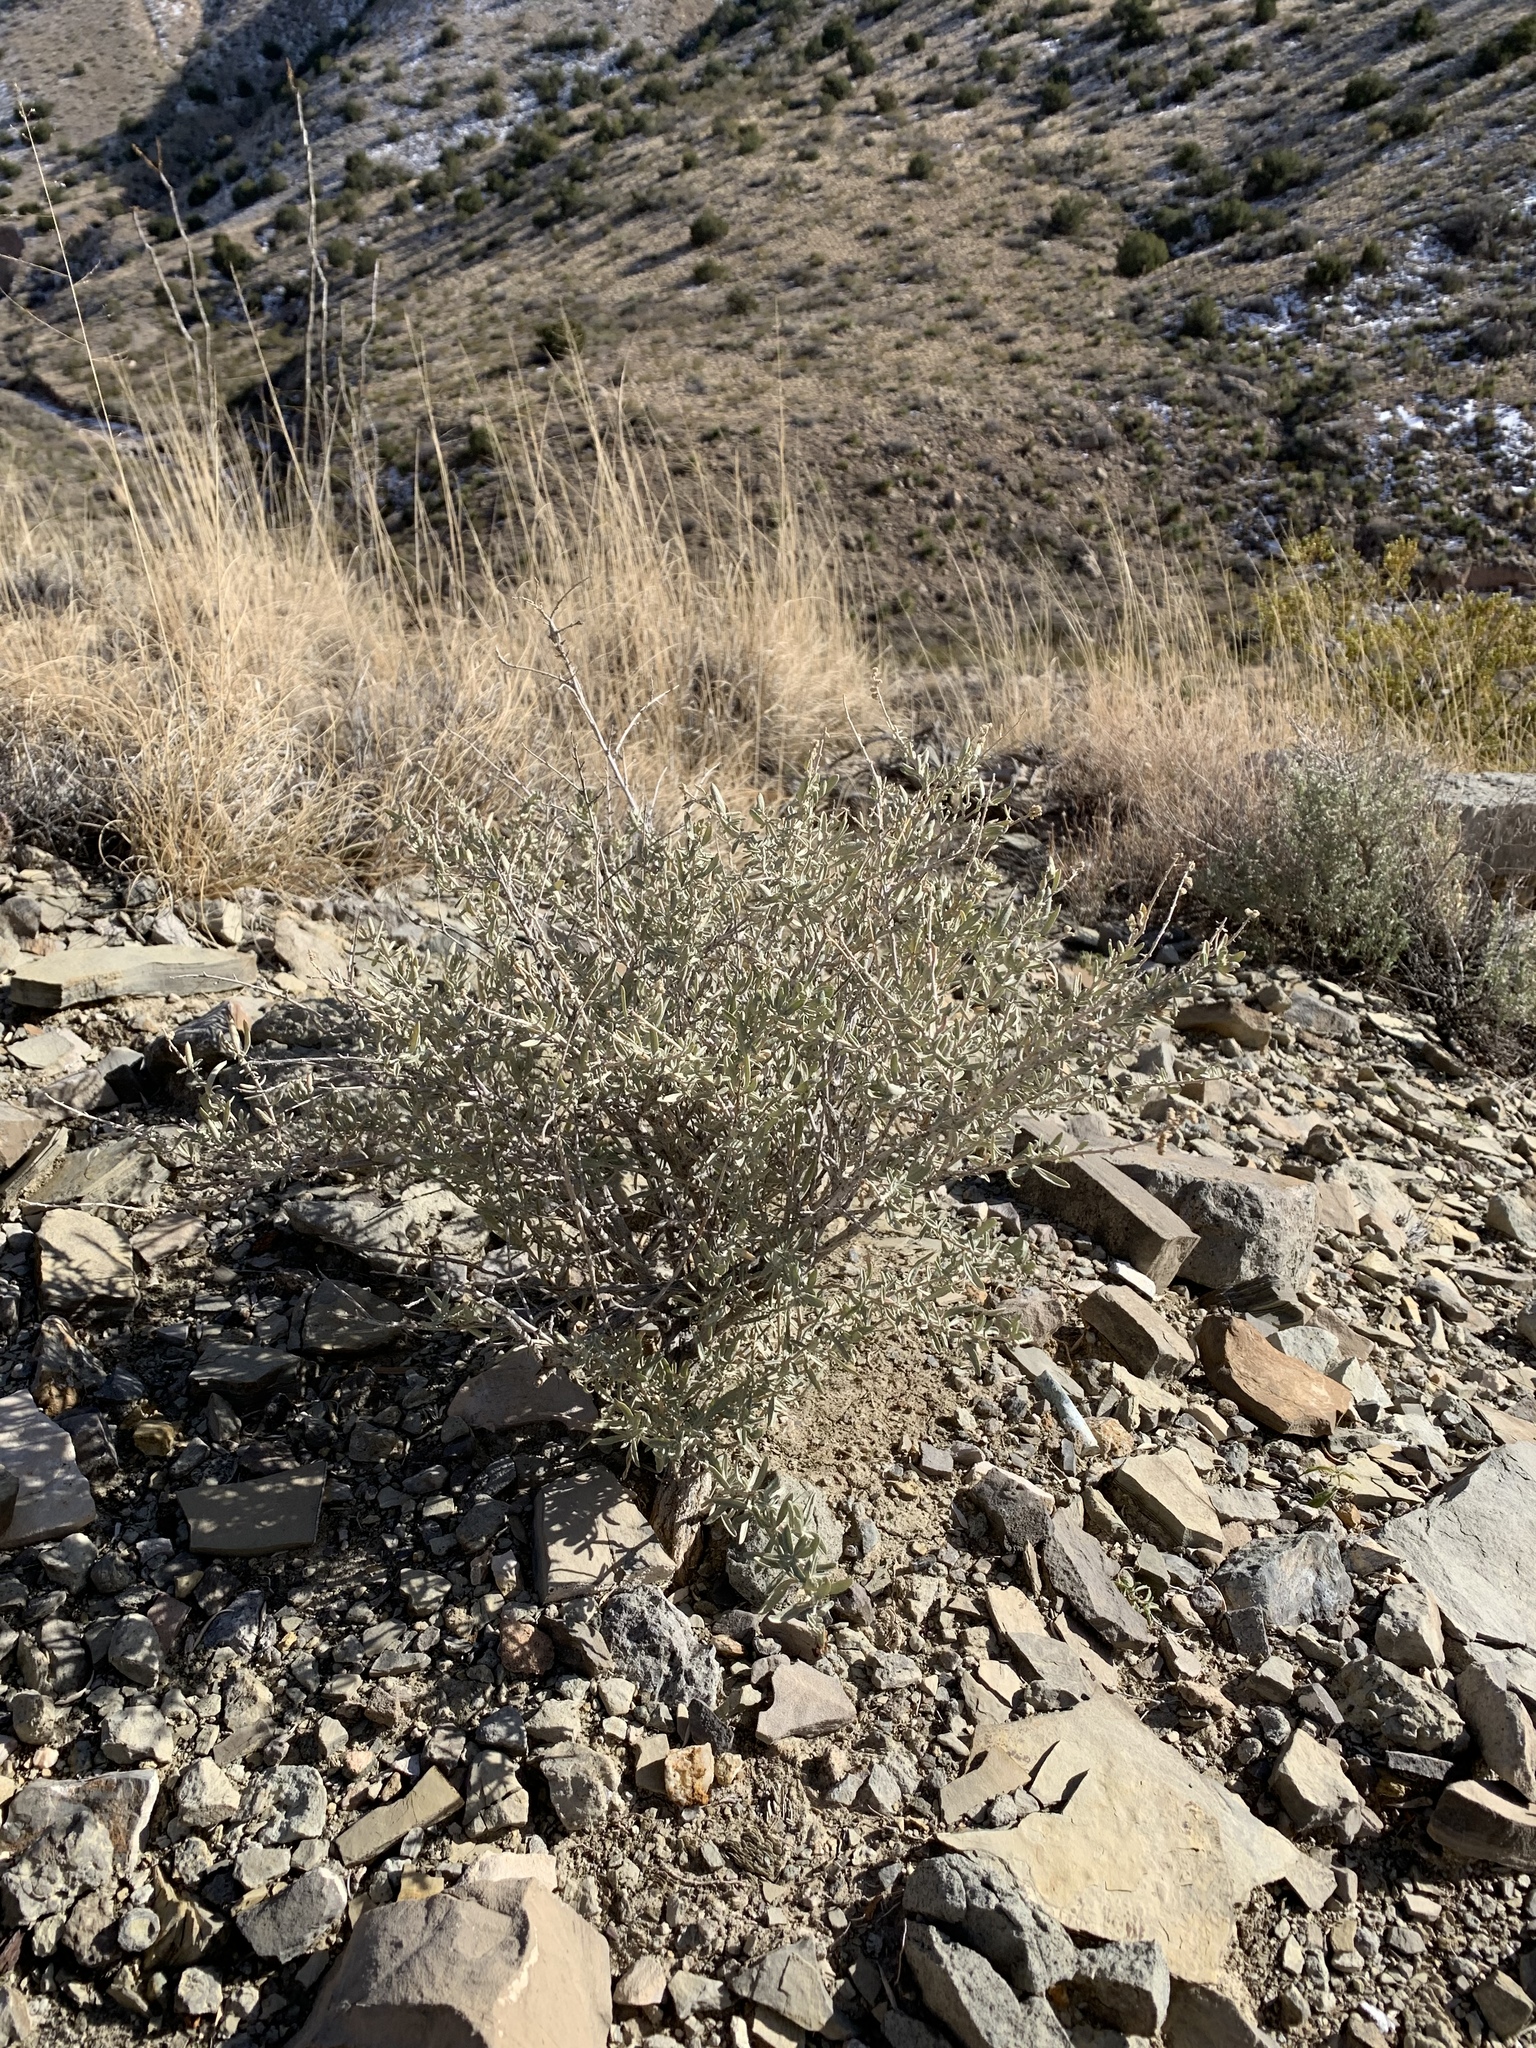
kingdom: Plantae
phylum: Tracheophyta
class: Magnoliopsida
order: Caryophyllales
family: Amaranthaceae
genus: Atriplex
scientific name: Atriplex canescens
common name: Four-wing saltbush
